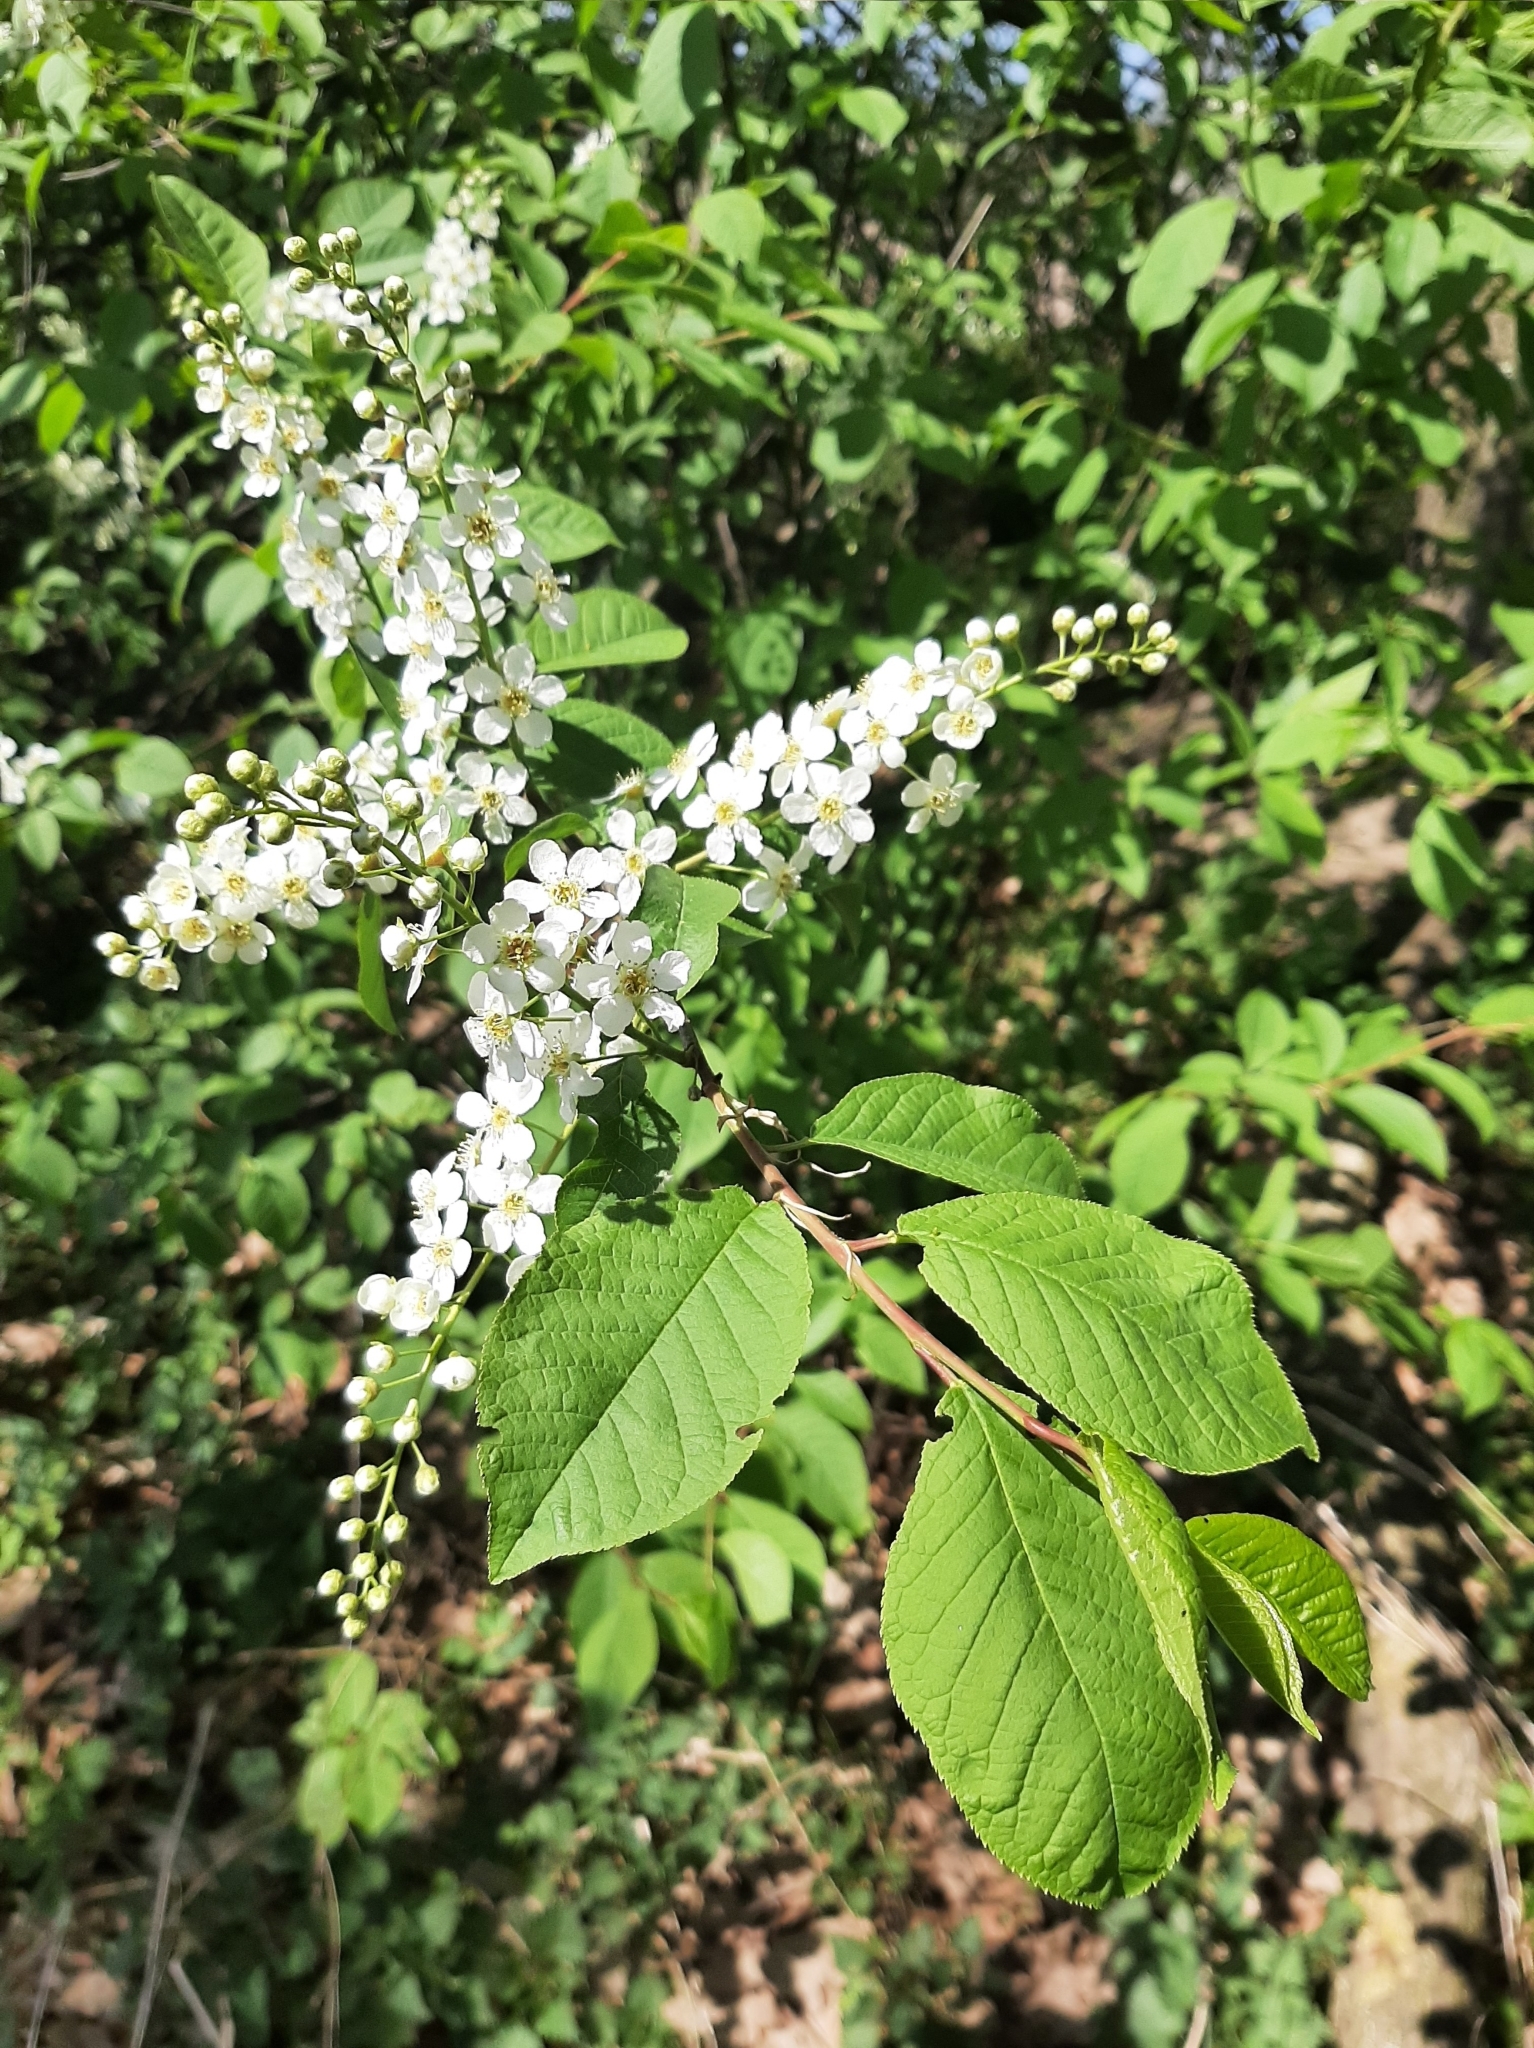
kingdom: Plantae
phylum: Tracheophyta
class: Magnoliopsida
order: Rosales
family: Rosaceae
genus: Prunus
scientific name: Prunus padus
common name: Bird cherry
